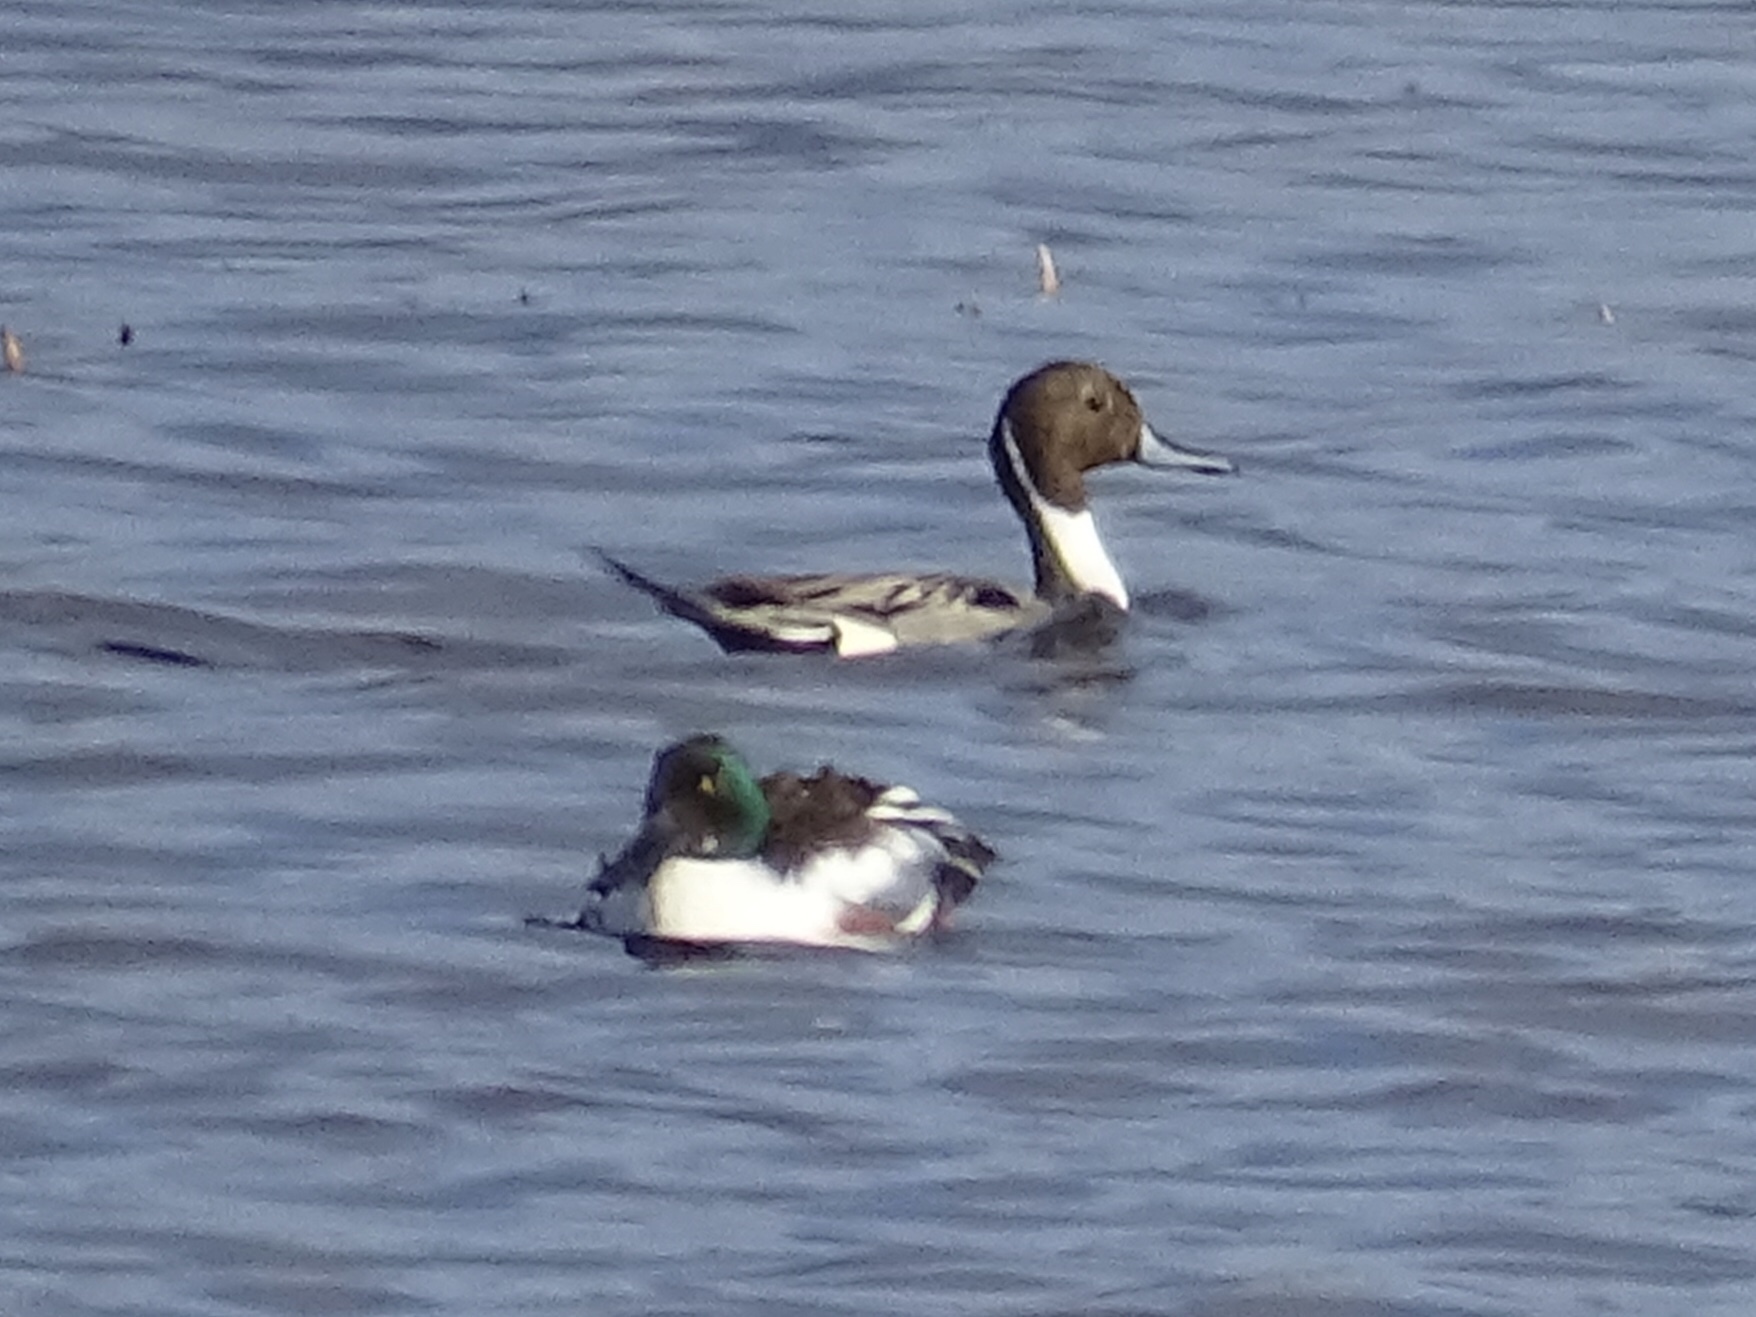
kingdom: Animalia
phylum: Chordata
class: Aves
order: Anseriformes
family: Anatidae
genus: Anas
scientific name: Anas acuta
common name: Northern pintail
